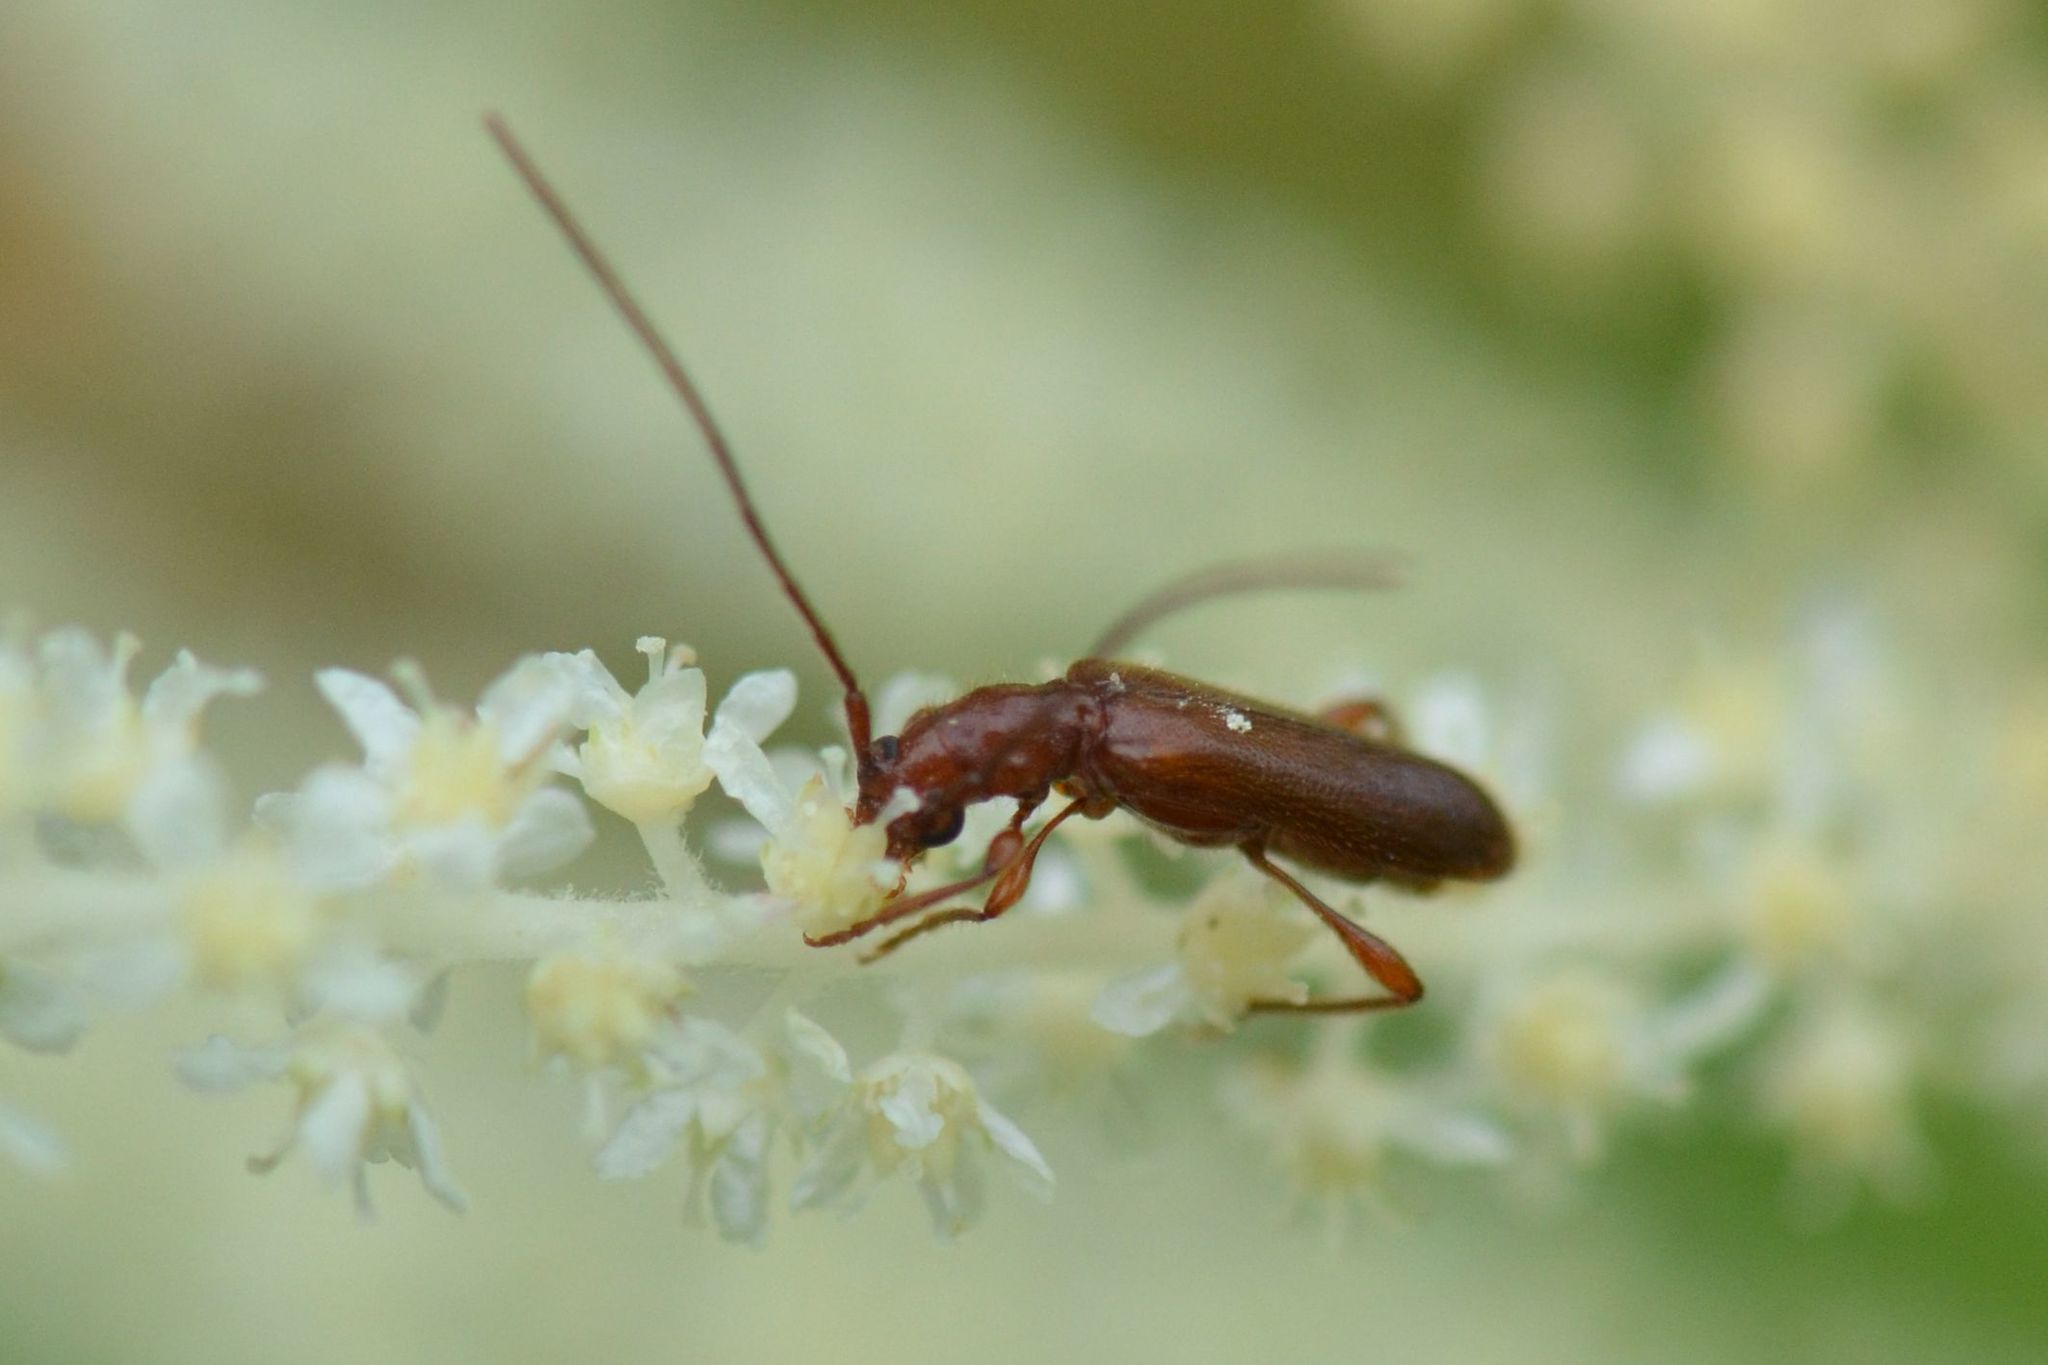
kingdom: Animalia
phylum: Arthropoda
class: Insecta
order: Coleoptera
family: Cerambycidae
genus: Obrium
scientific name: Obrium brunneum
